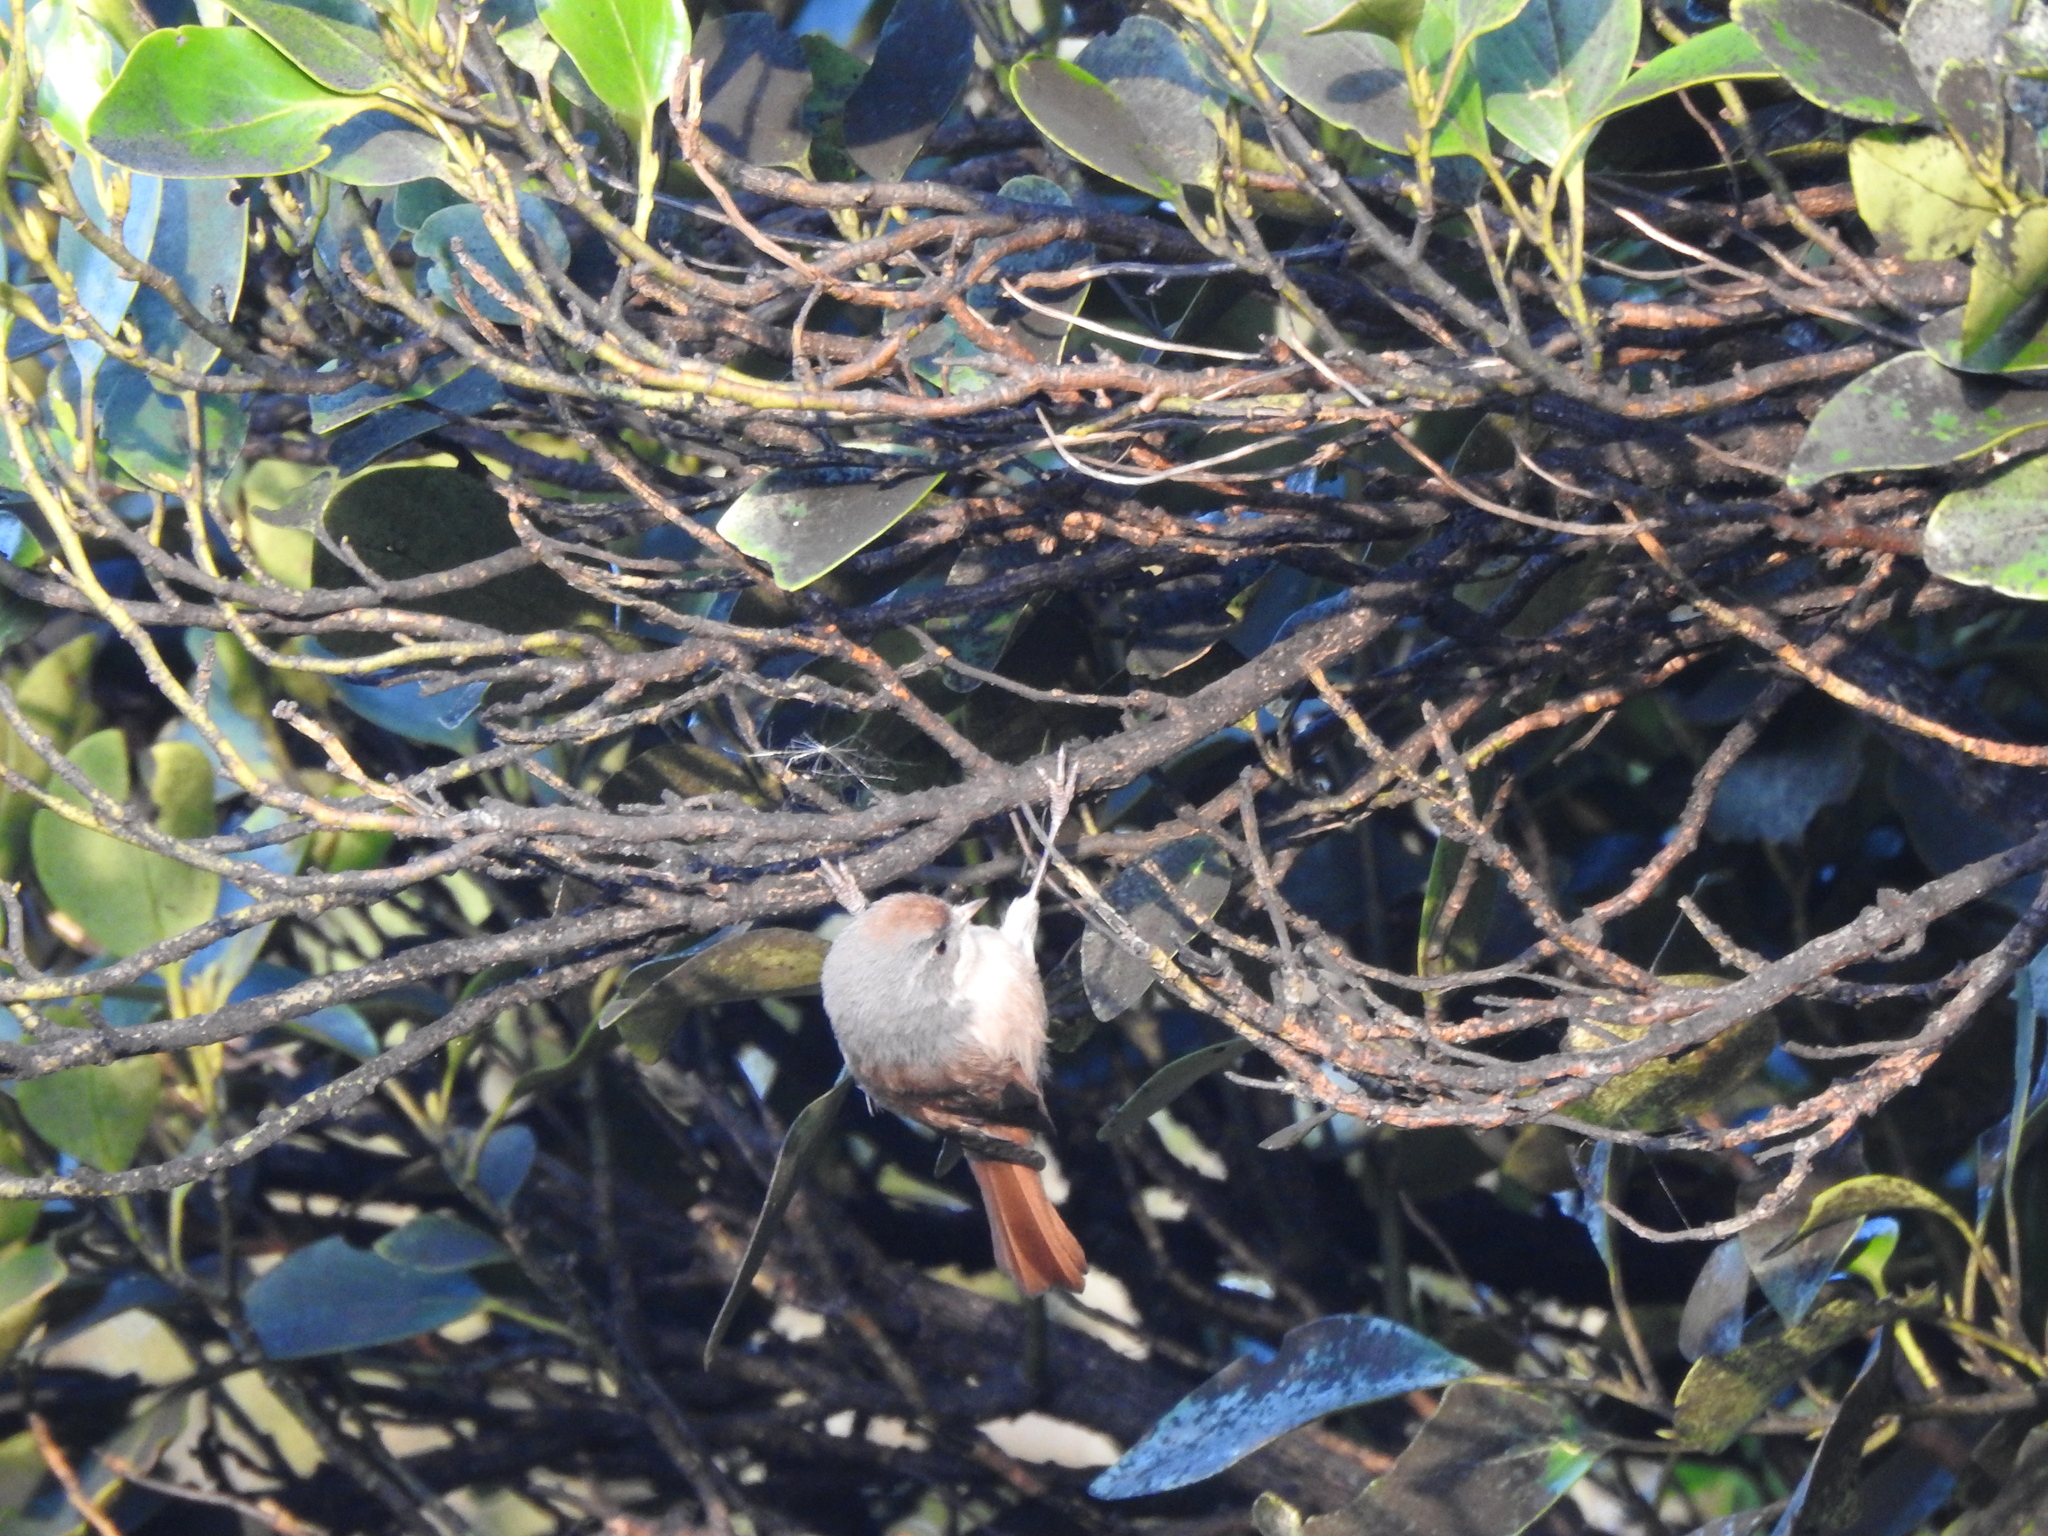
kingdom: Animalia
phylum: Chordata
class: Aves
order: Passeriformes
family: Acanthizidae
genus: Finschia
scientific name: Finschia novaeseelandiae
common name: Pipipi
